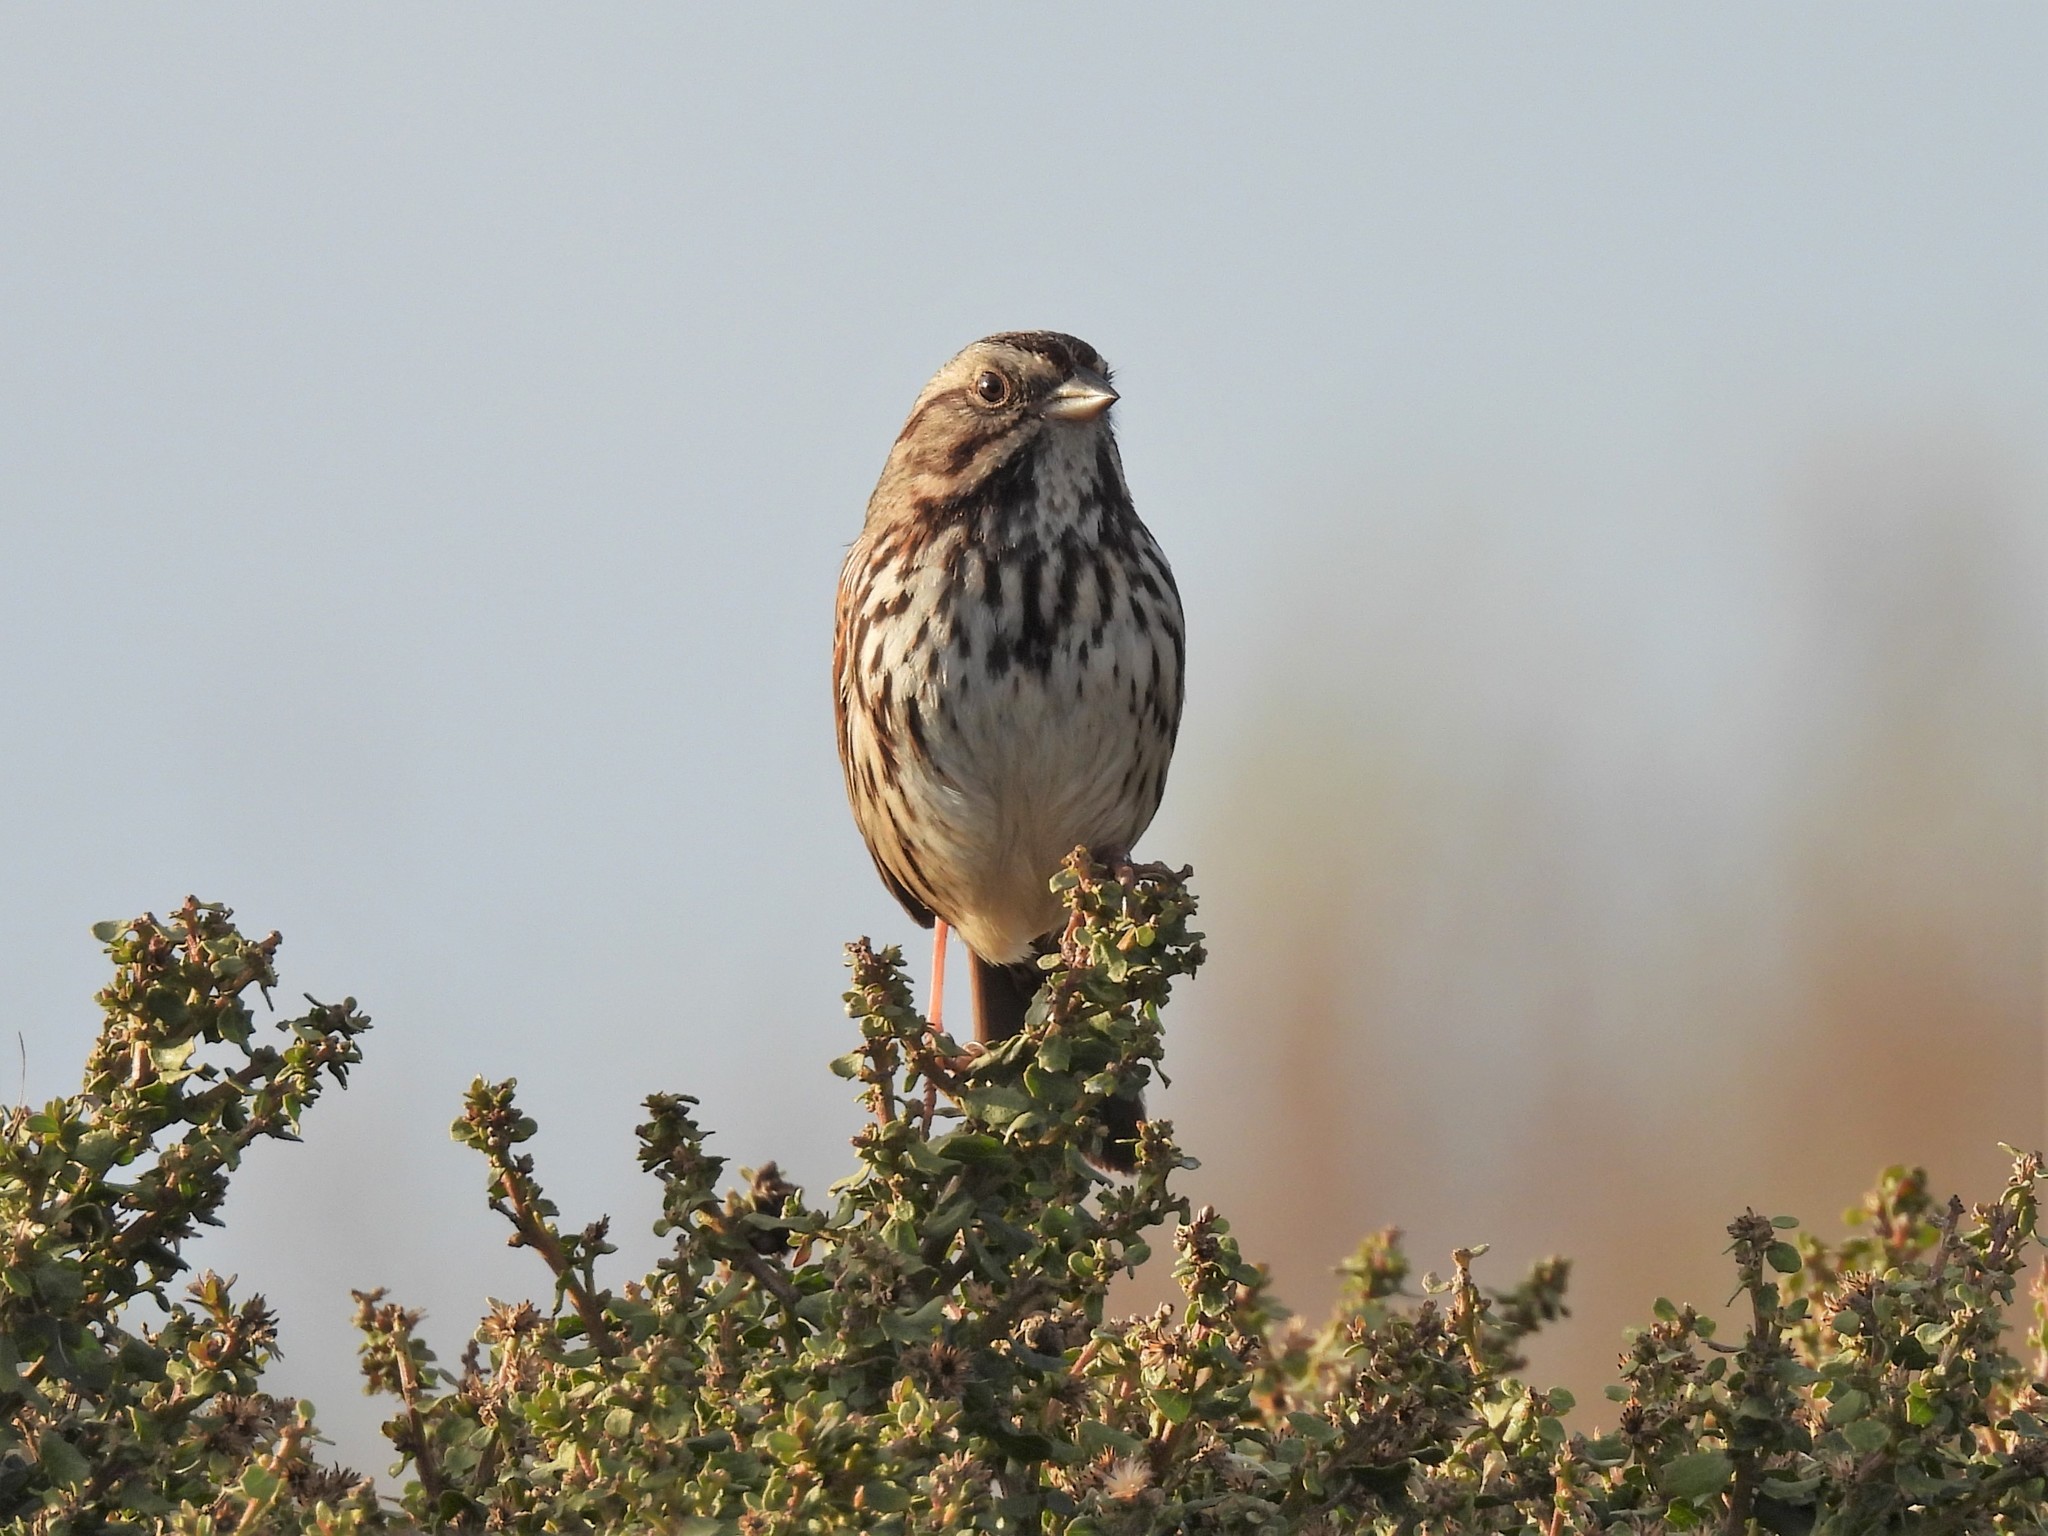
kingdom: Animalia
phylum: Chordata
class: Aves
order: Passeriformes
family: Passerellidae
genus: Melospiza
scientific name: Melospiza melodia
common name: Song sparrow
